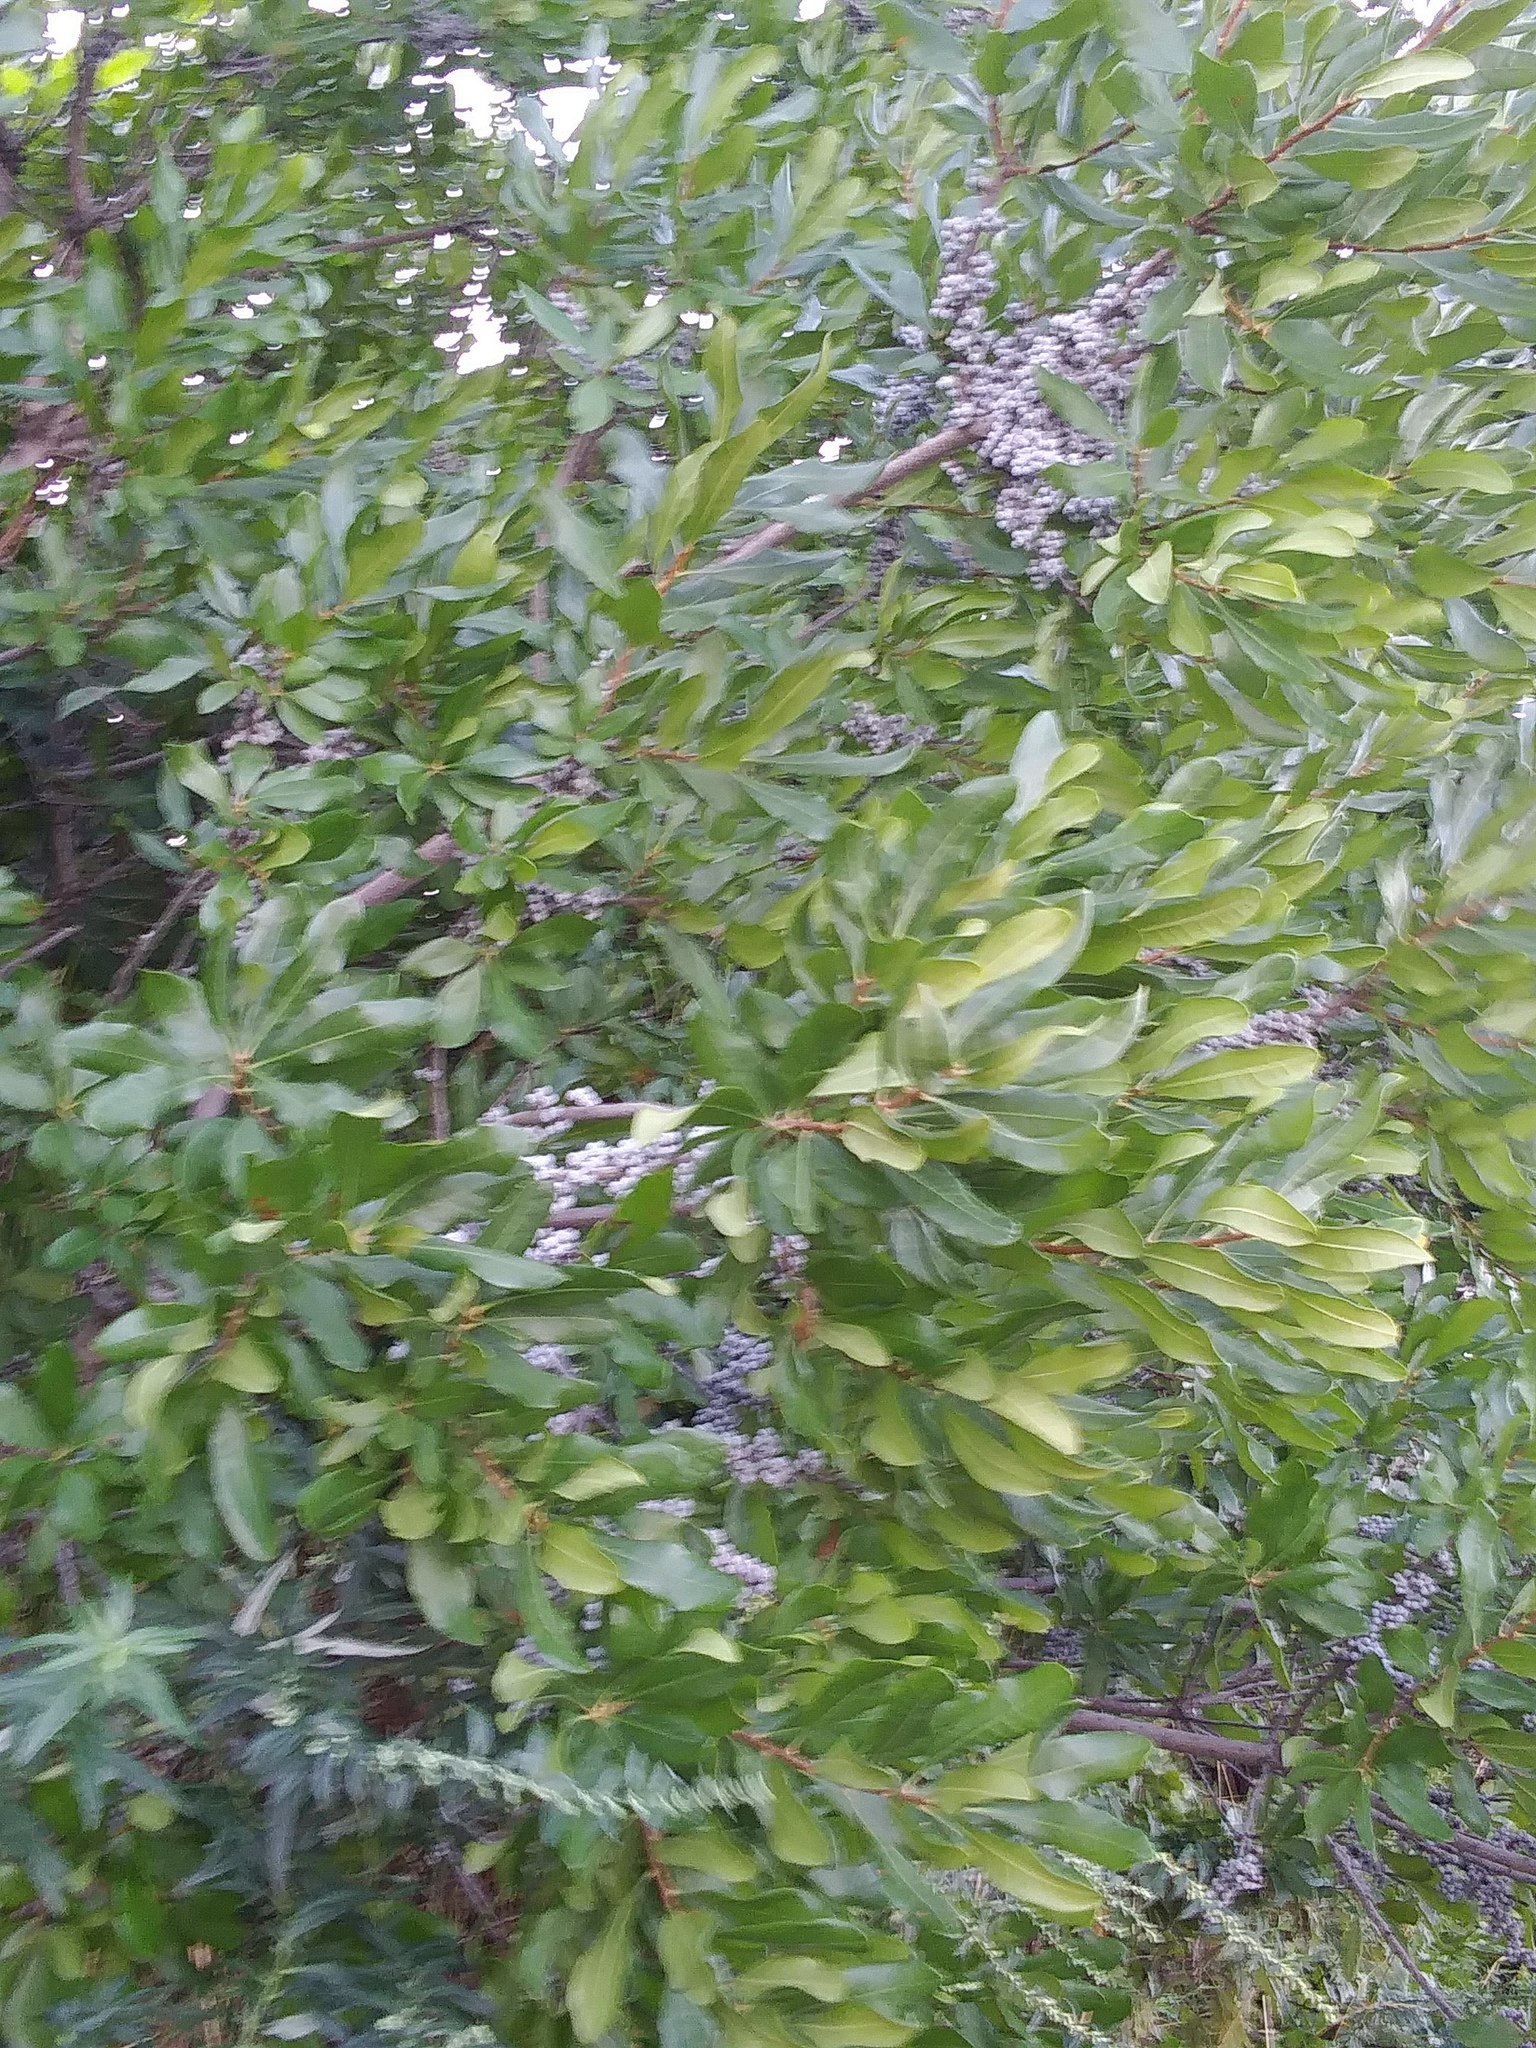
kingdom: Plantae
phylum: Tracheophyta
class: Magnoliopsida
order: Fagales
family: Myricaceae
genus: Morella
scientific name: Morella pensylvanica
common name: Northern bayberry
